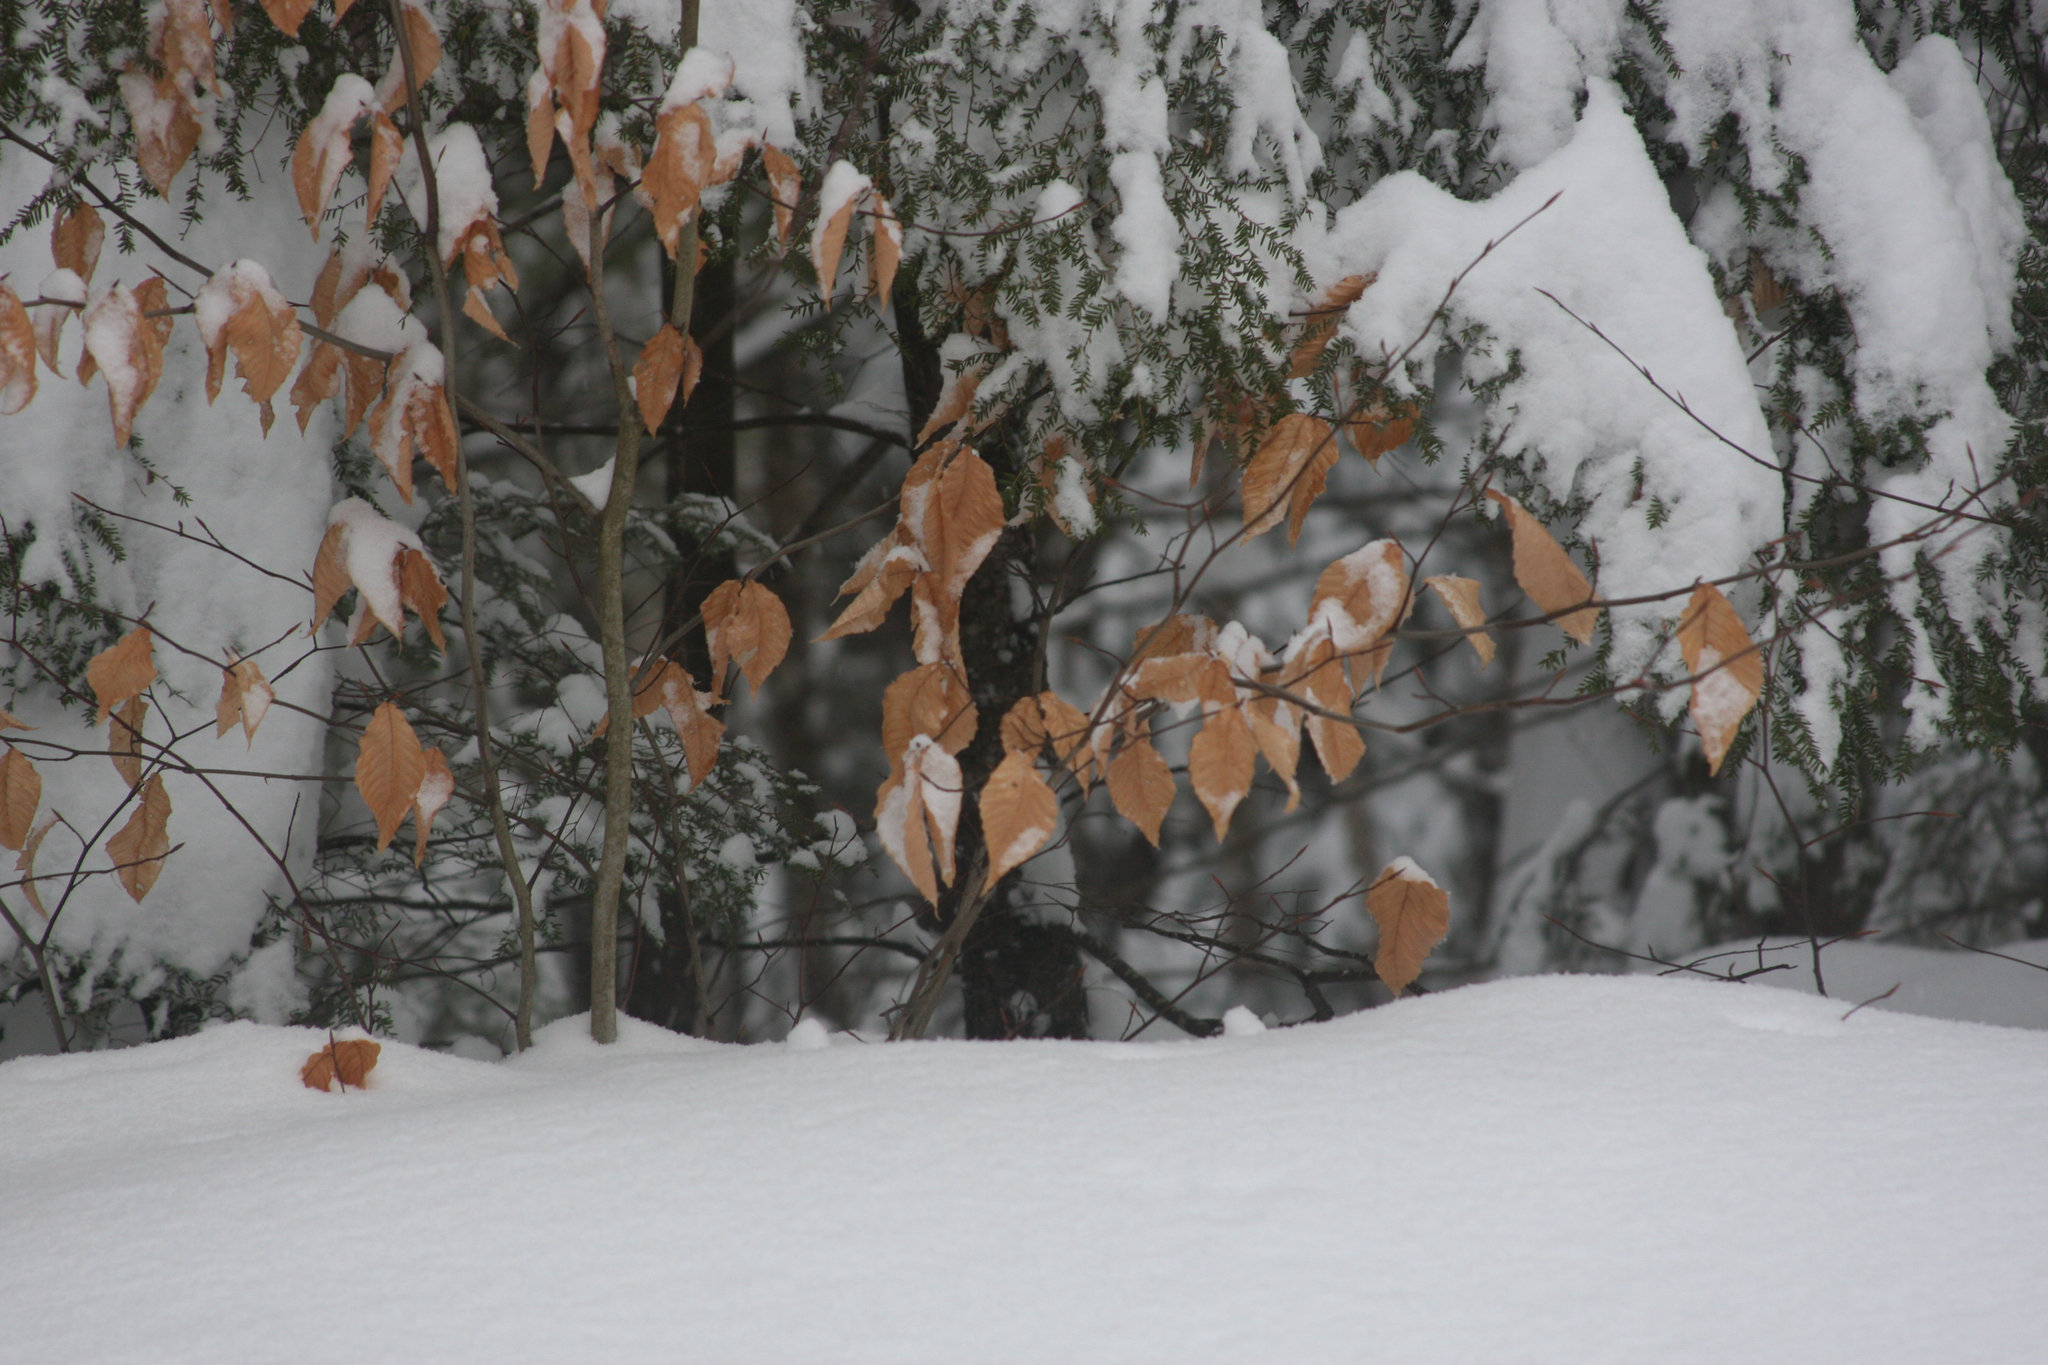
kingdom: Plantae
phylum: Tracheophyta
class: Magnoliopsida
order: Fagales
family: Fagaceae
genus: Fagus
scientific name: Fagus grandifolia
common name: American beech
